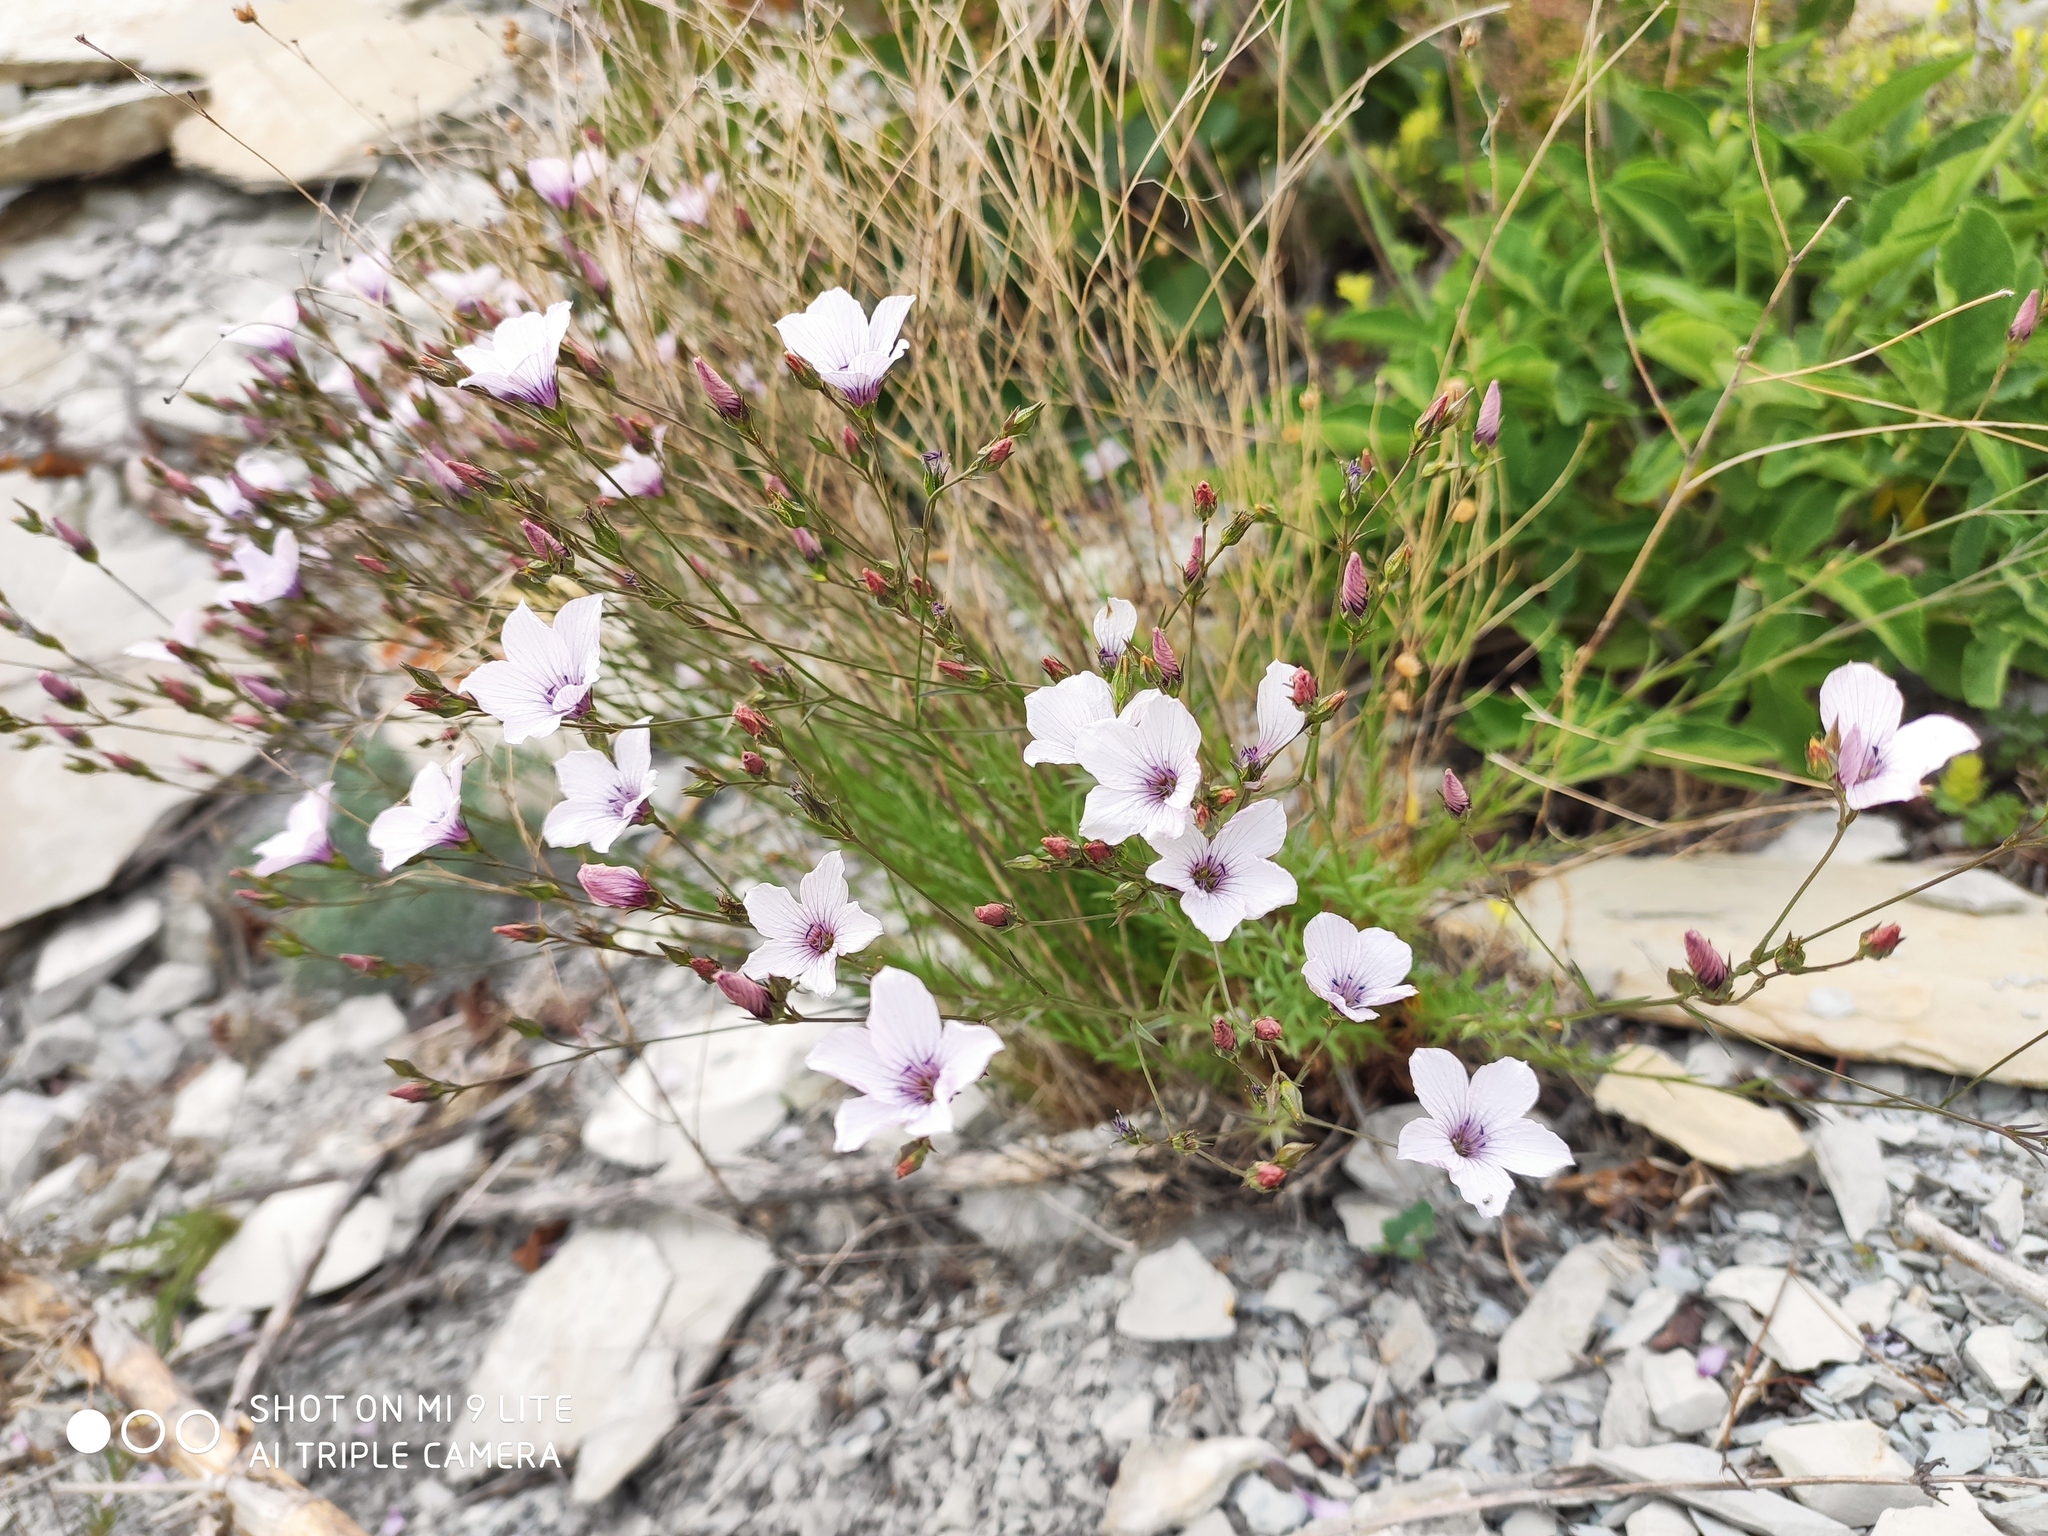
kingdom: Plantae
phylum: Tracheophyta
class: Magnoliopsida
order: Malpighiales
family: Linaceae
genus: Linum
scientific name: Linum tenuifolium
